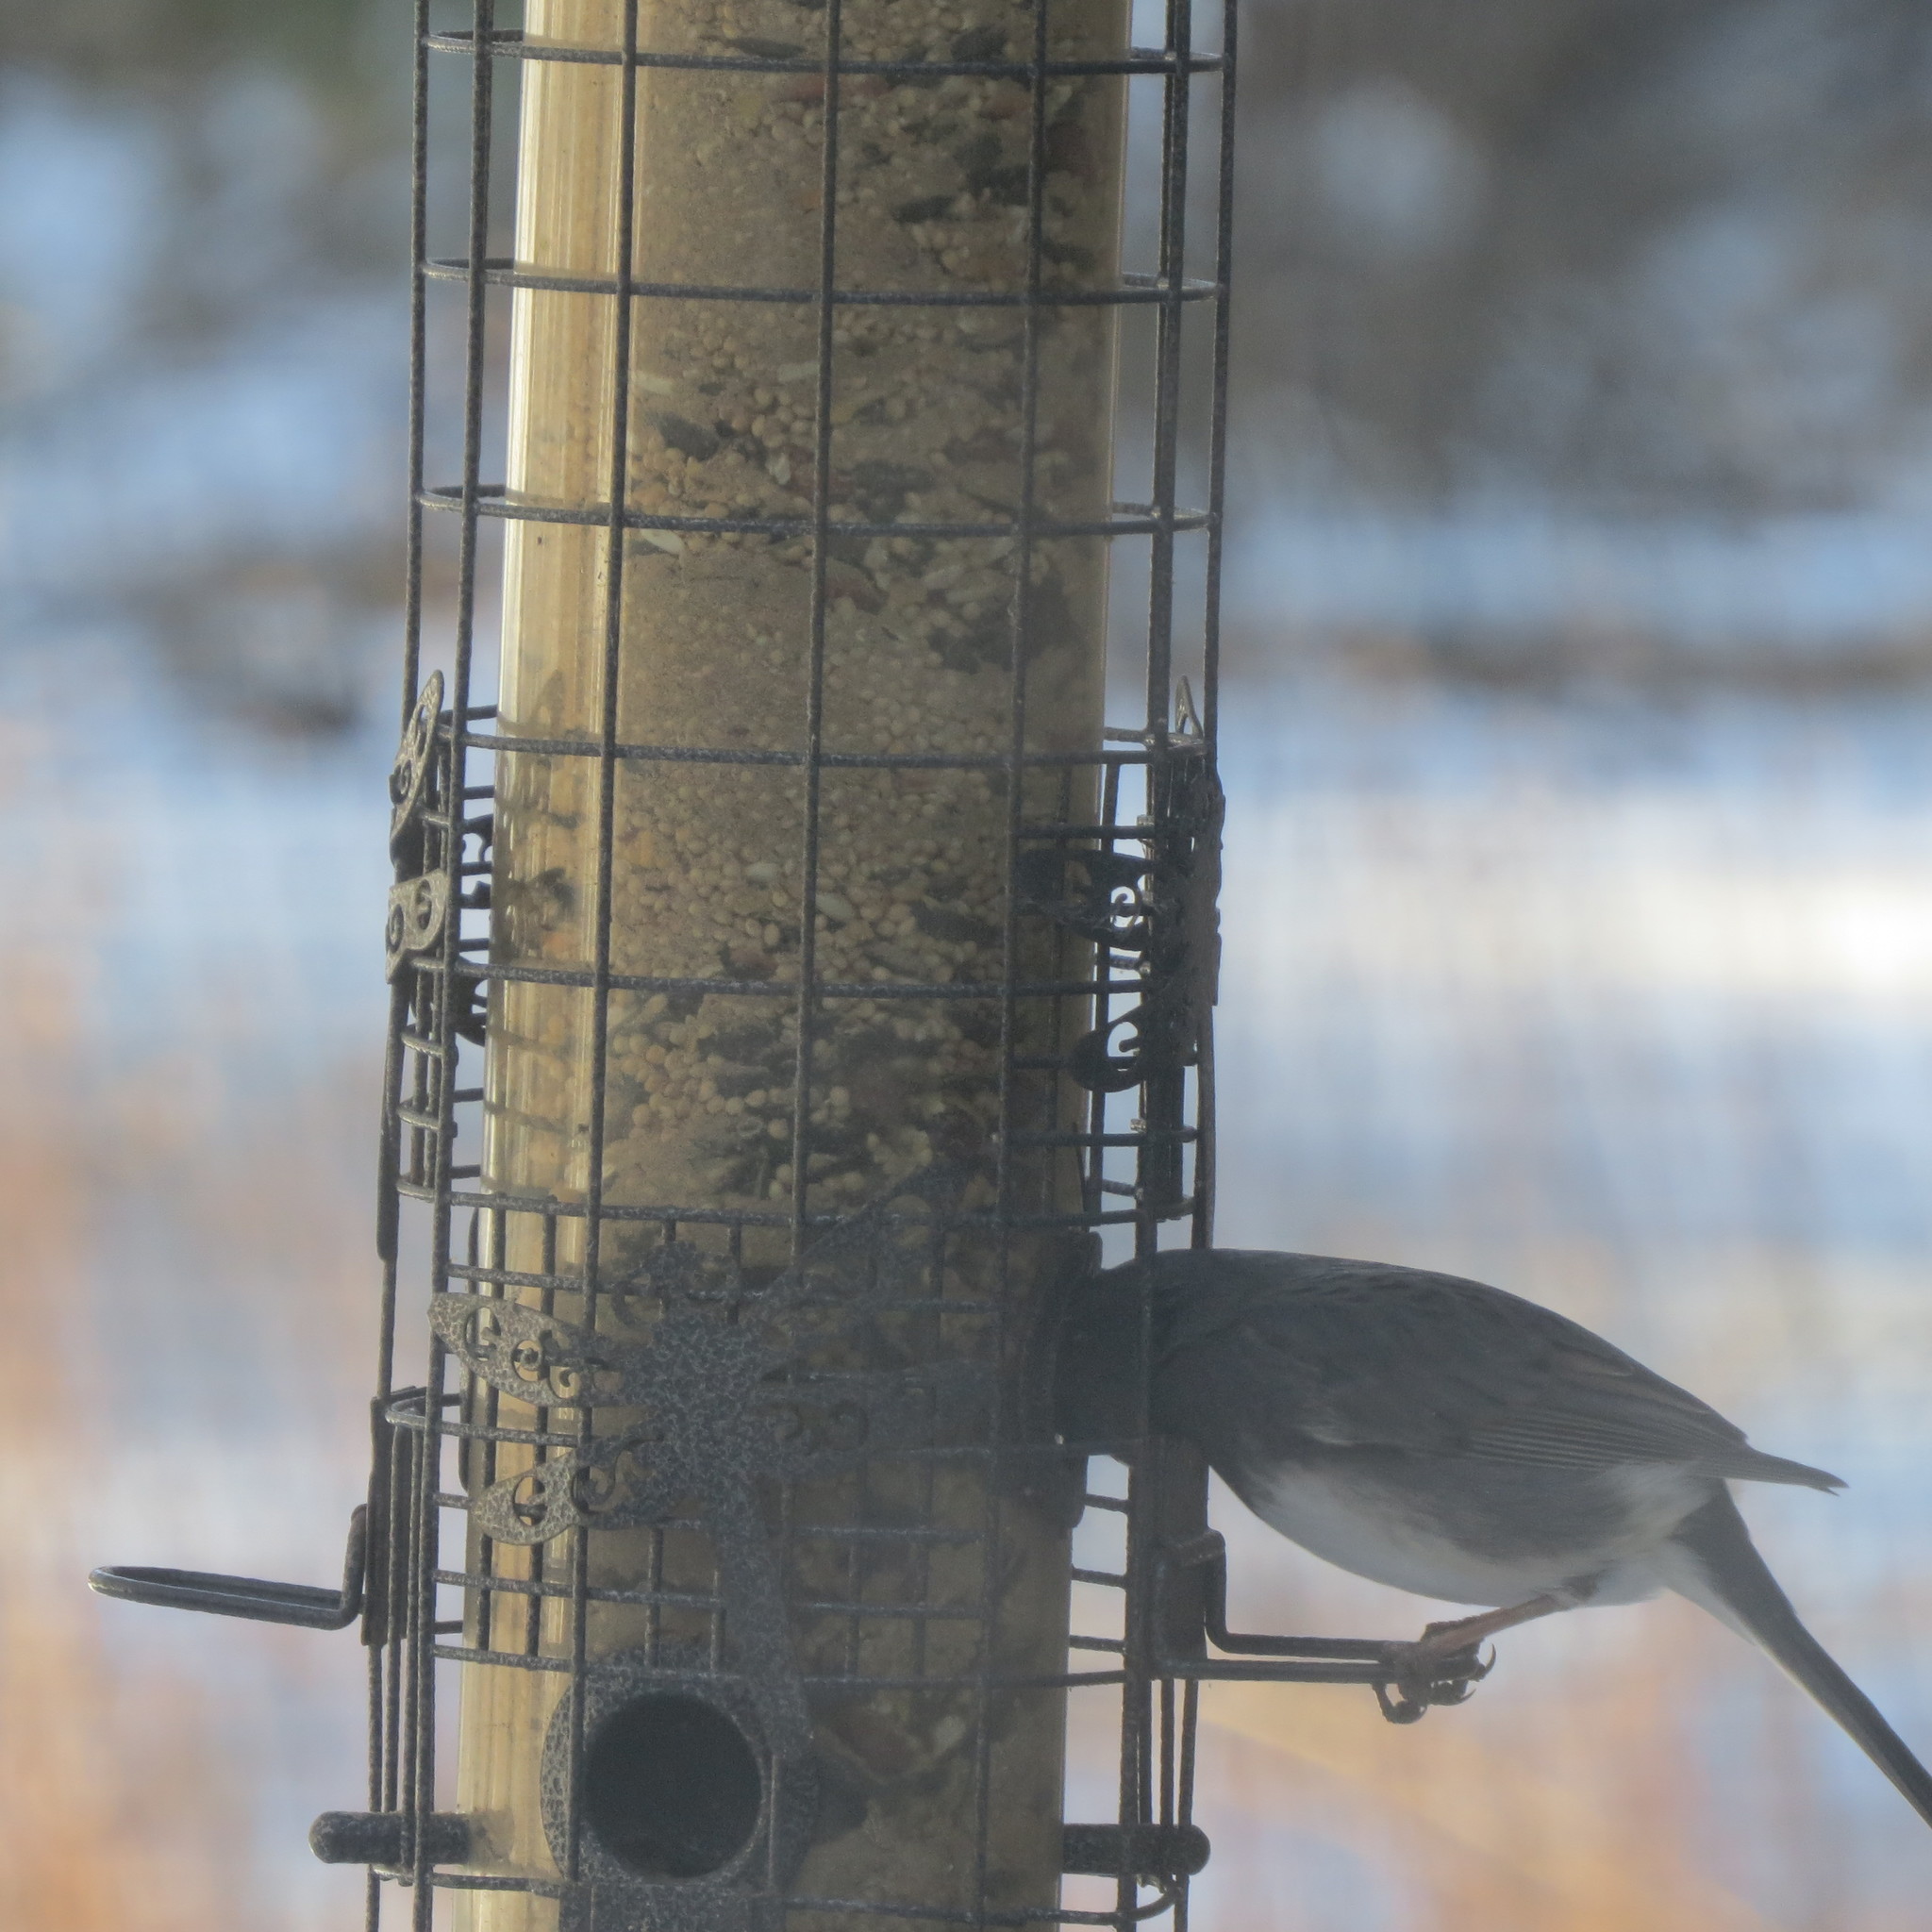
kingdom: Animalia
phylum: Chordata
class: Aves
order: Passeriformes
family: Passerellidae
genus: Junco
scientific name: Junco hyemalis
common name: Dark-eyed junco
